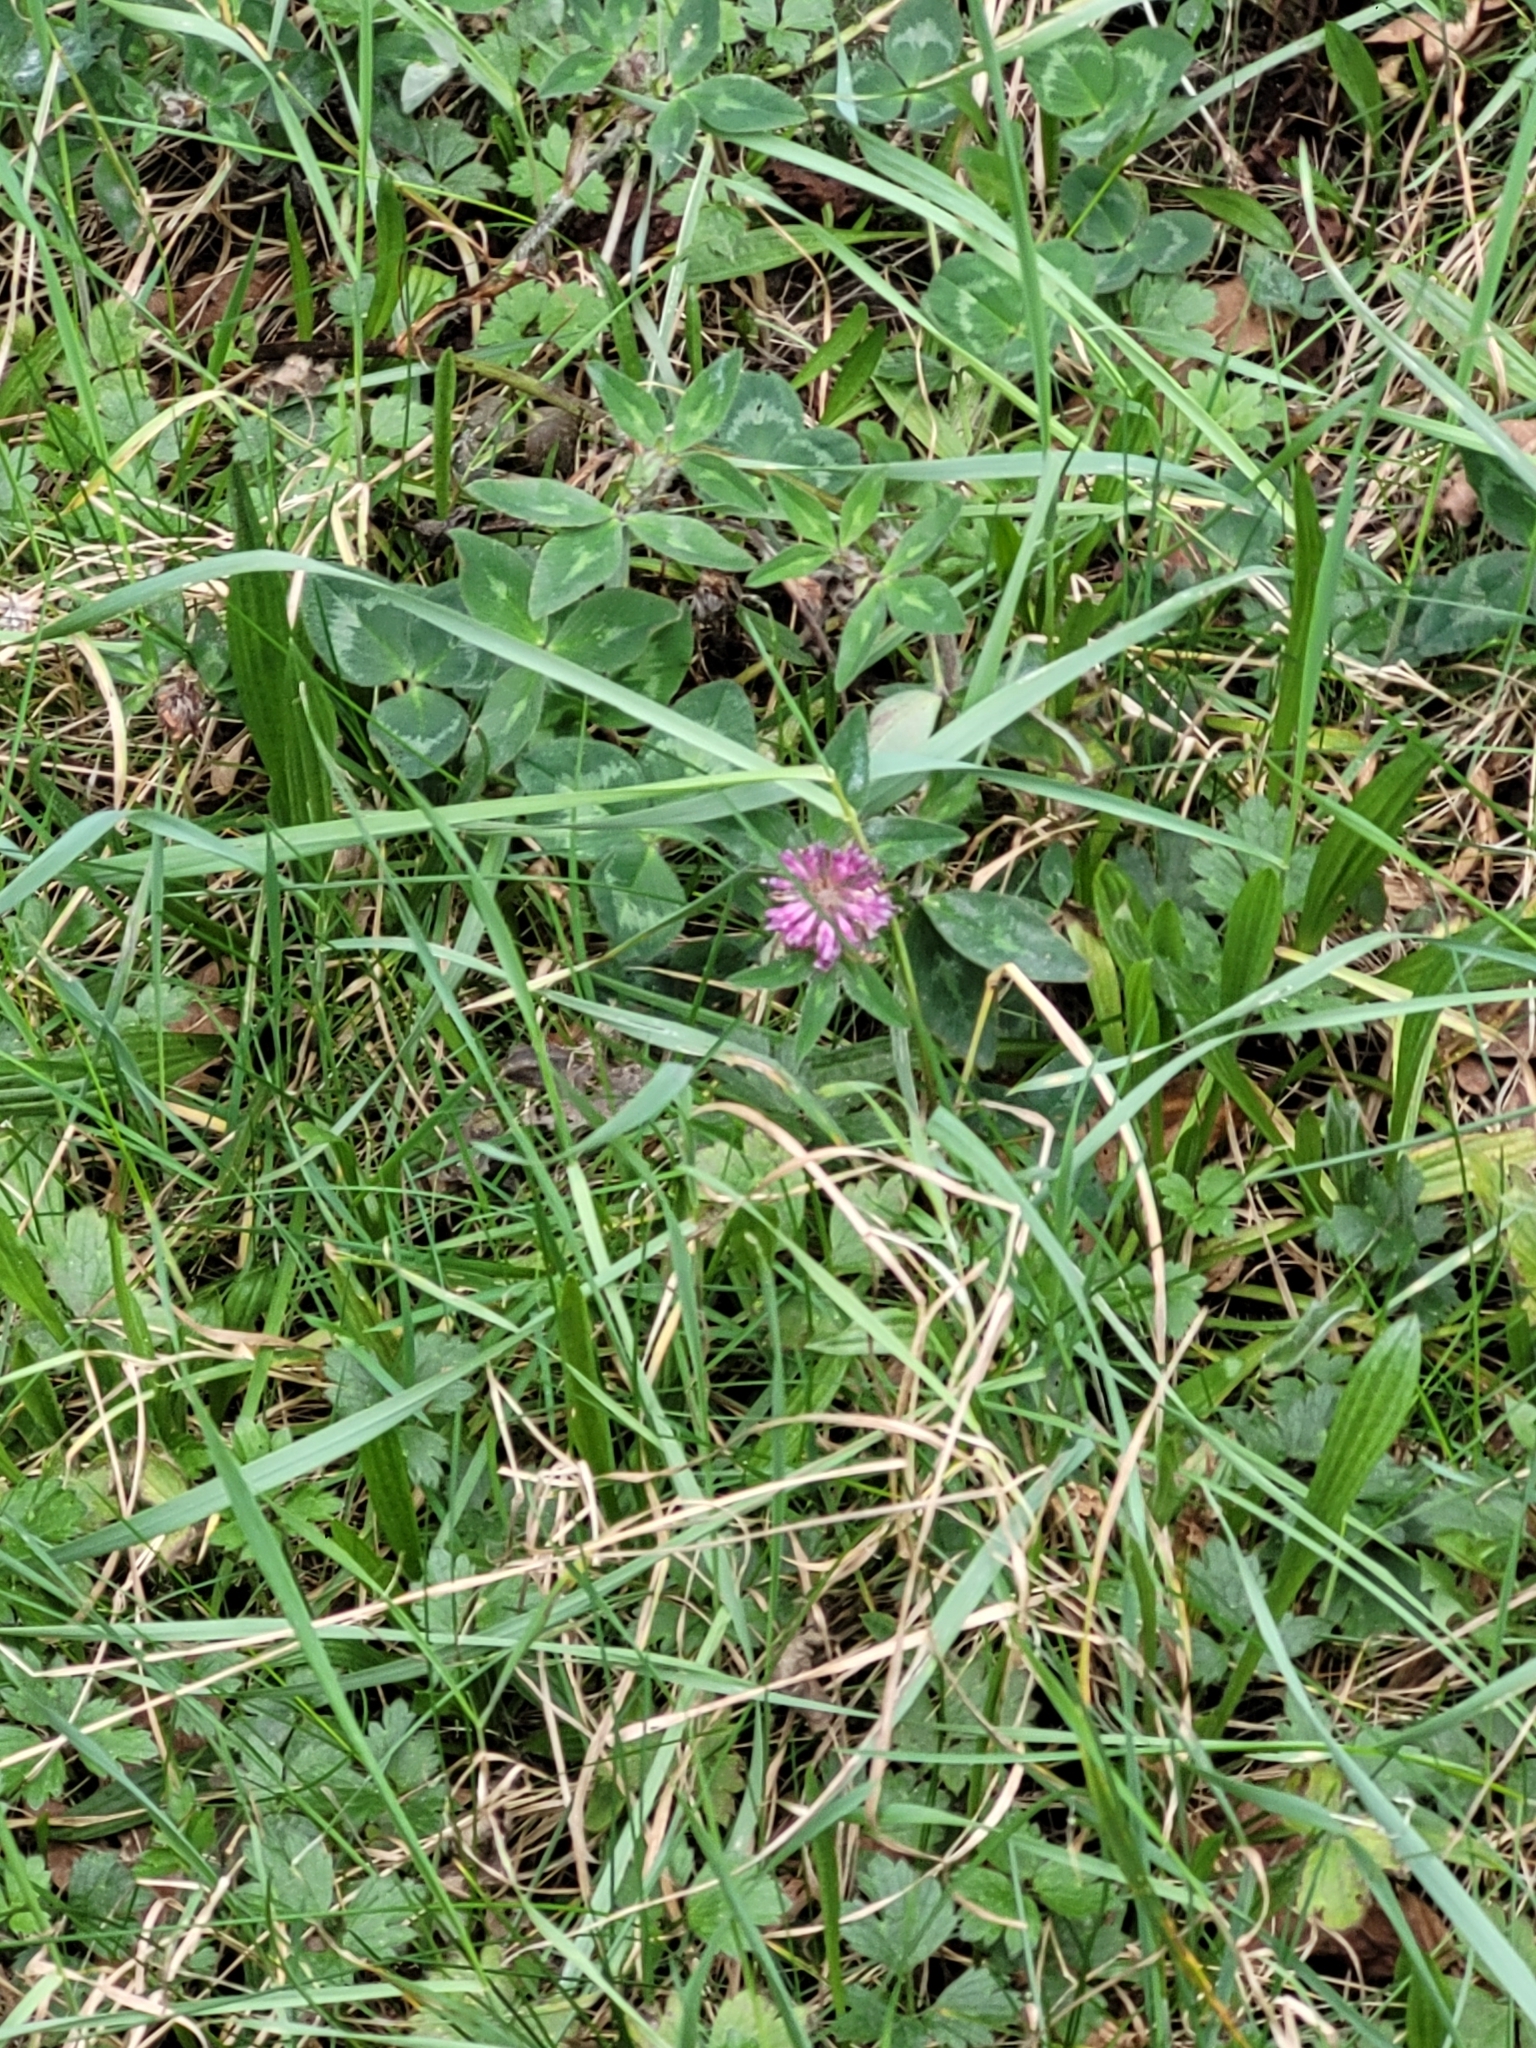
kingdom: Plantae
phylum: Tracheophyta
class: Magnoliopsida
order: Fabales
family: Fabaceae
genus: Trifolium
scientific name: Trifolium pratense
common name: Red clover
